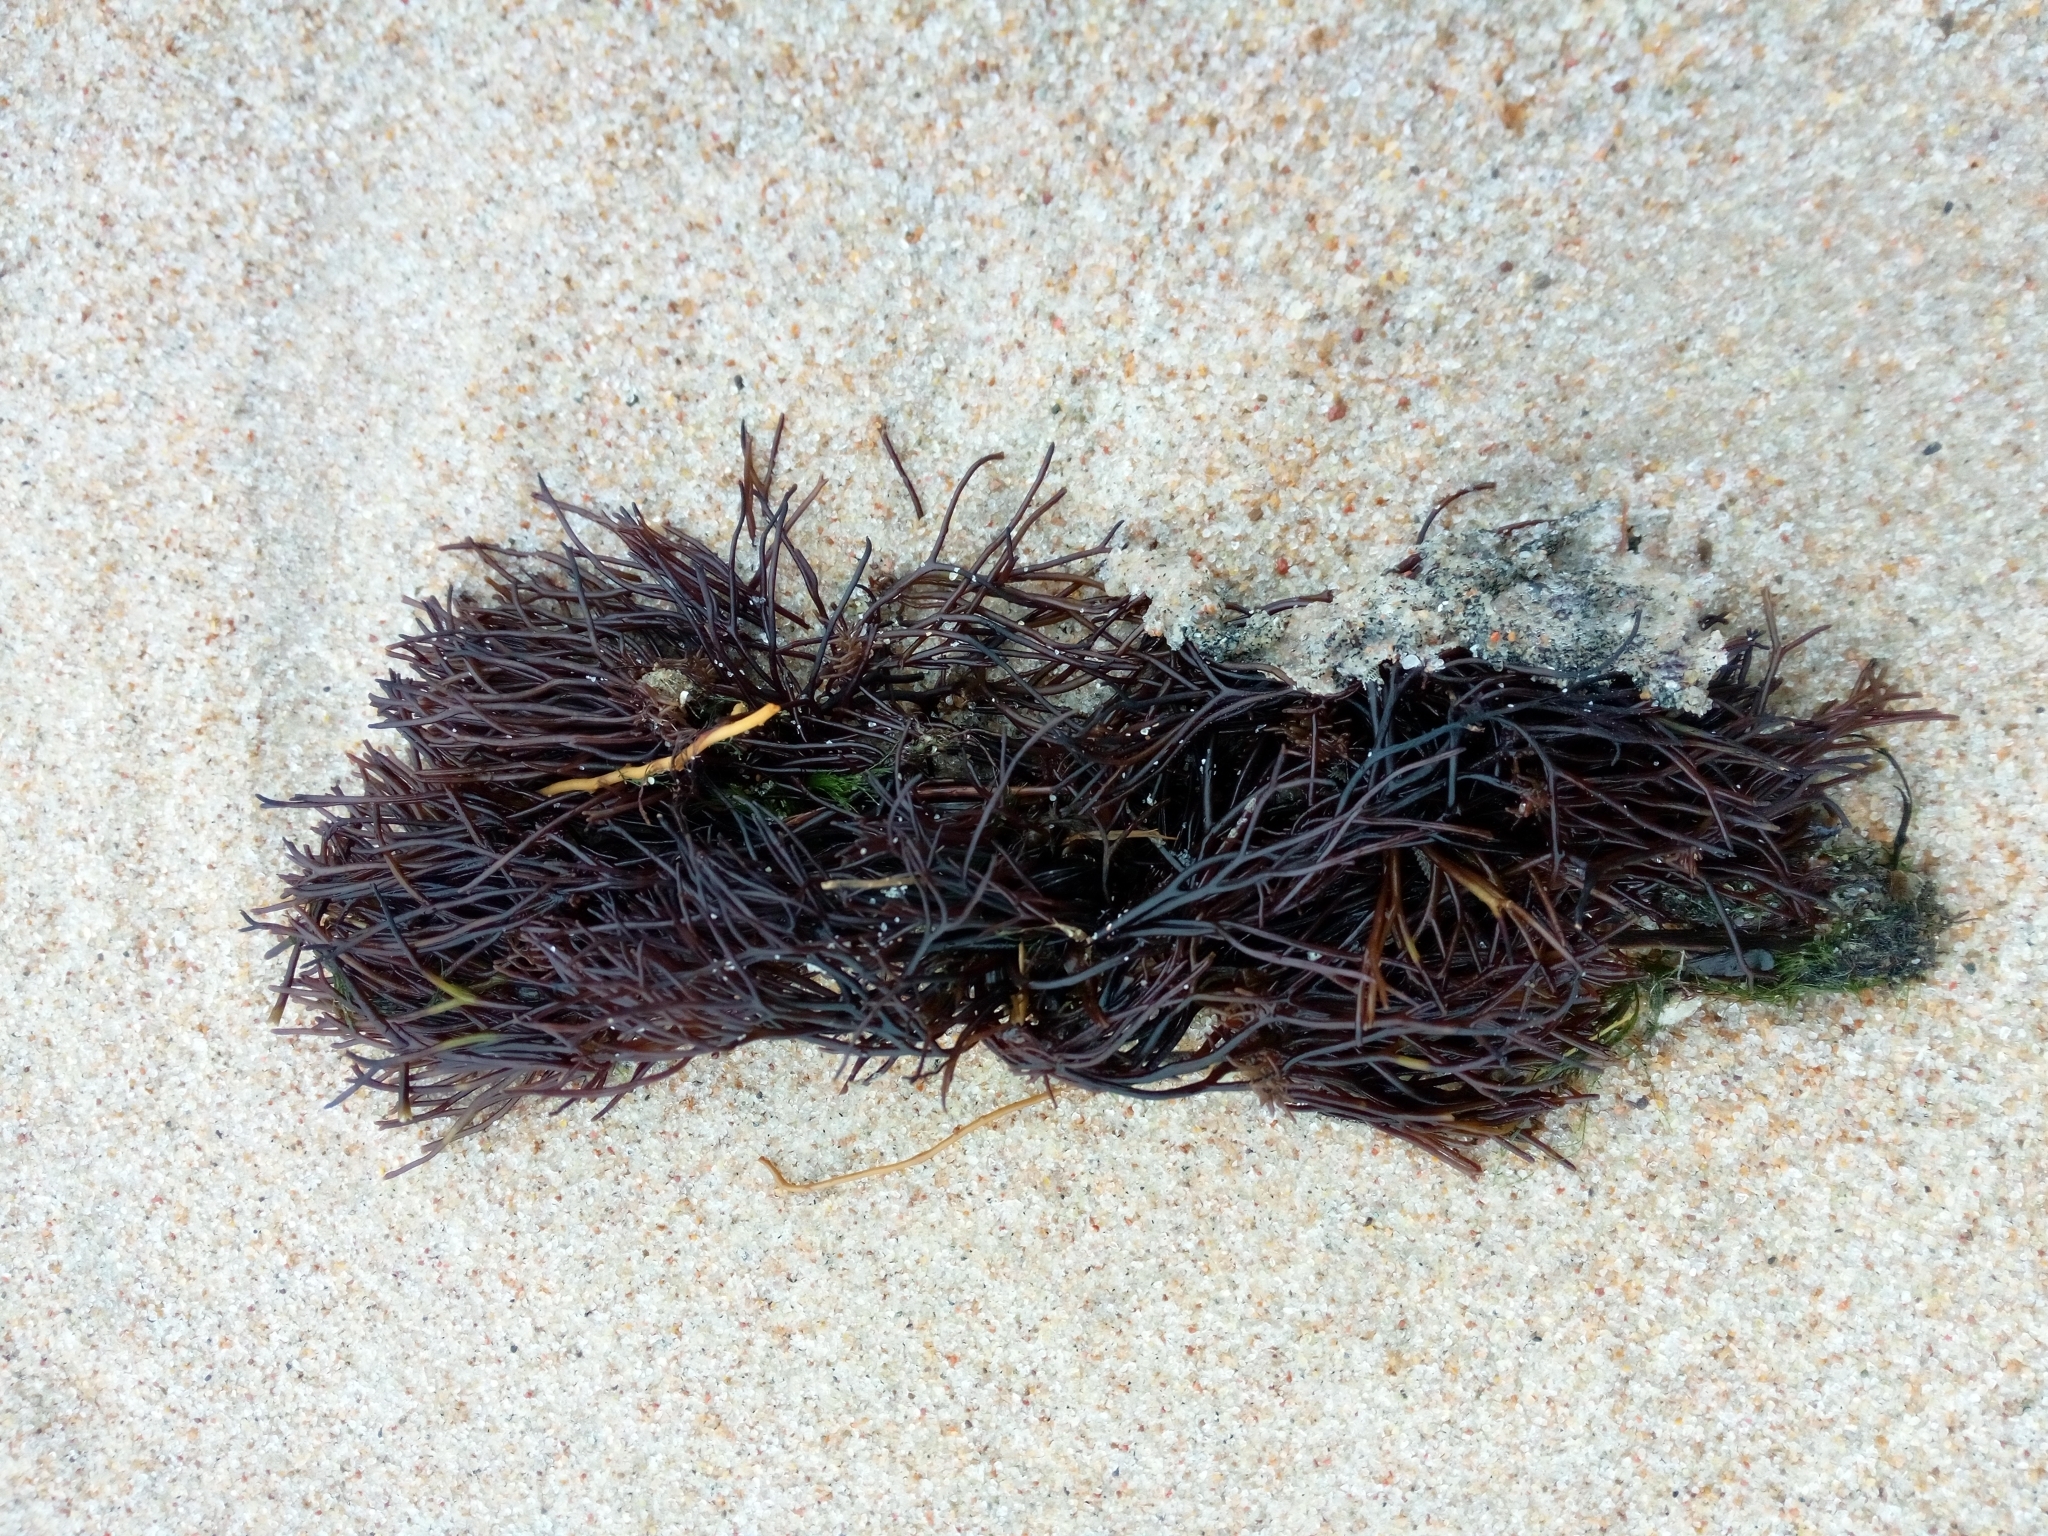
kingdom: Plantae
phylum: Rhodophyta
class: Florideophyceae
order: Gigartinales
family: Furcellariaceae
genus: Furcellaria
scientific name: Furcellaria lumbricalis
